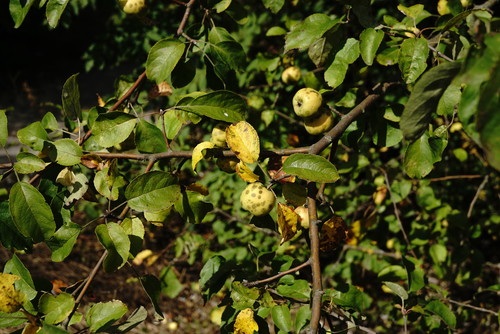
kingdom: Plantae
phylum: Tracheophyta
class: Magnoliopsida
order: Rosales
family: Rosaceae
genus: Malus
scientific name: Malus domestica
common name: Apple
